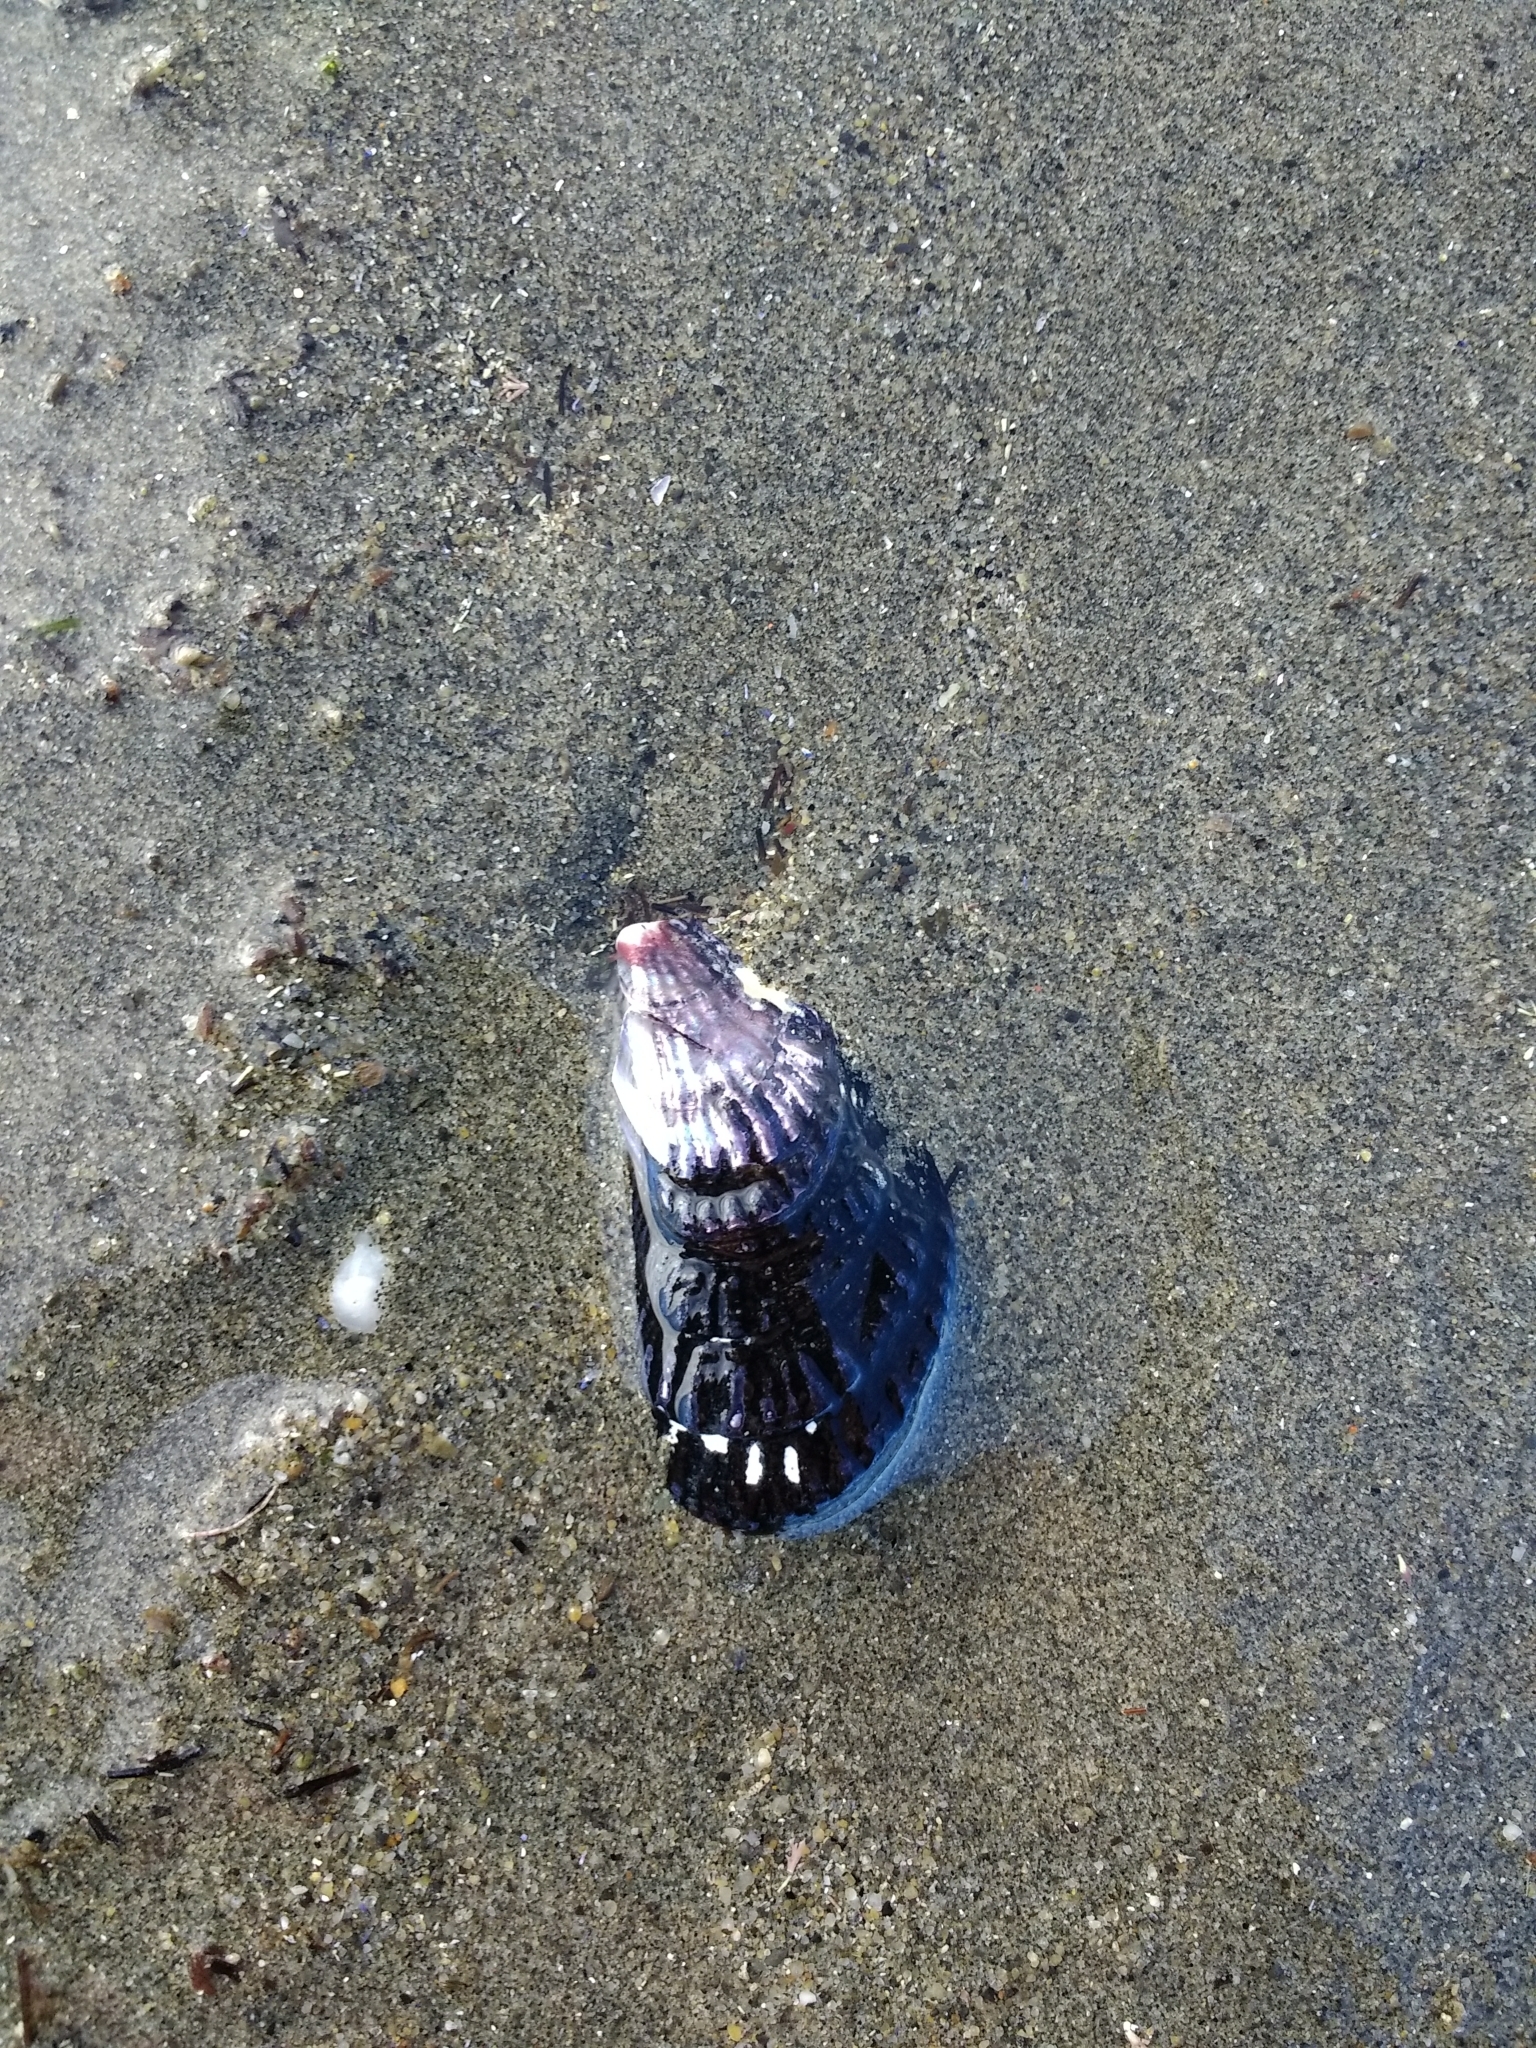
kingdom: Animalia
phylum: Mollusca
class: Bivalvia
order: Mytilida
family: Mytilidae
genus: Aulacomya
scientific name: Aulacomya atra
